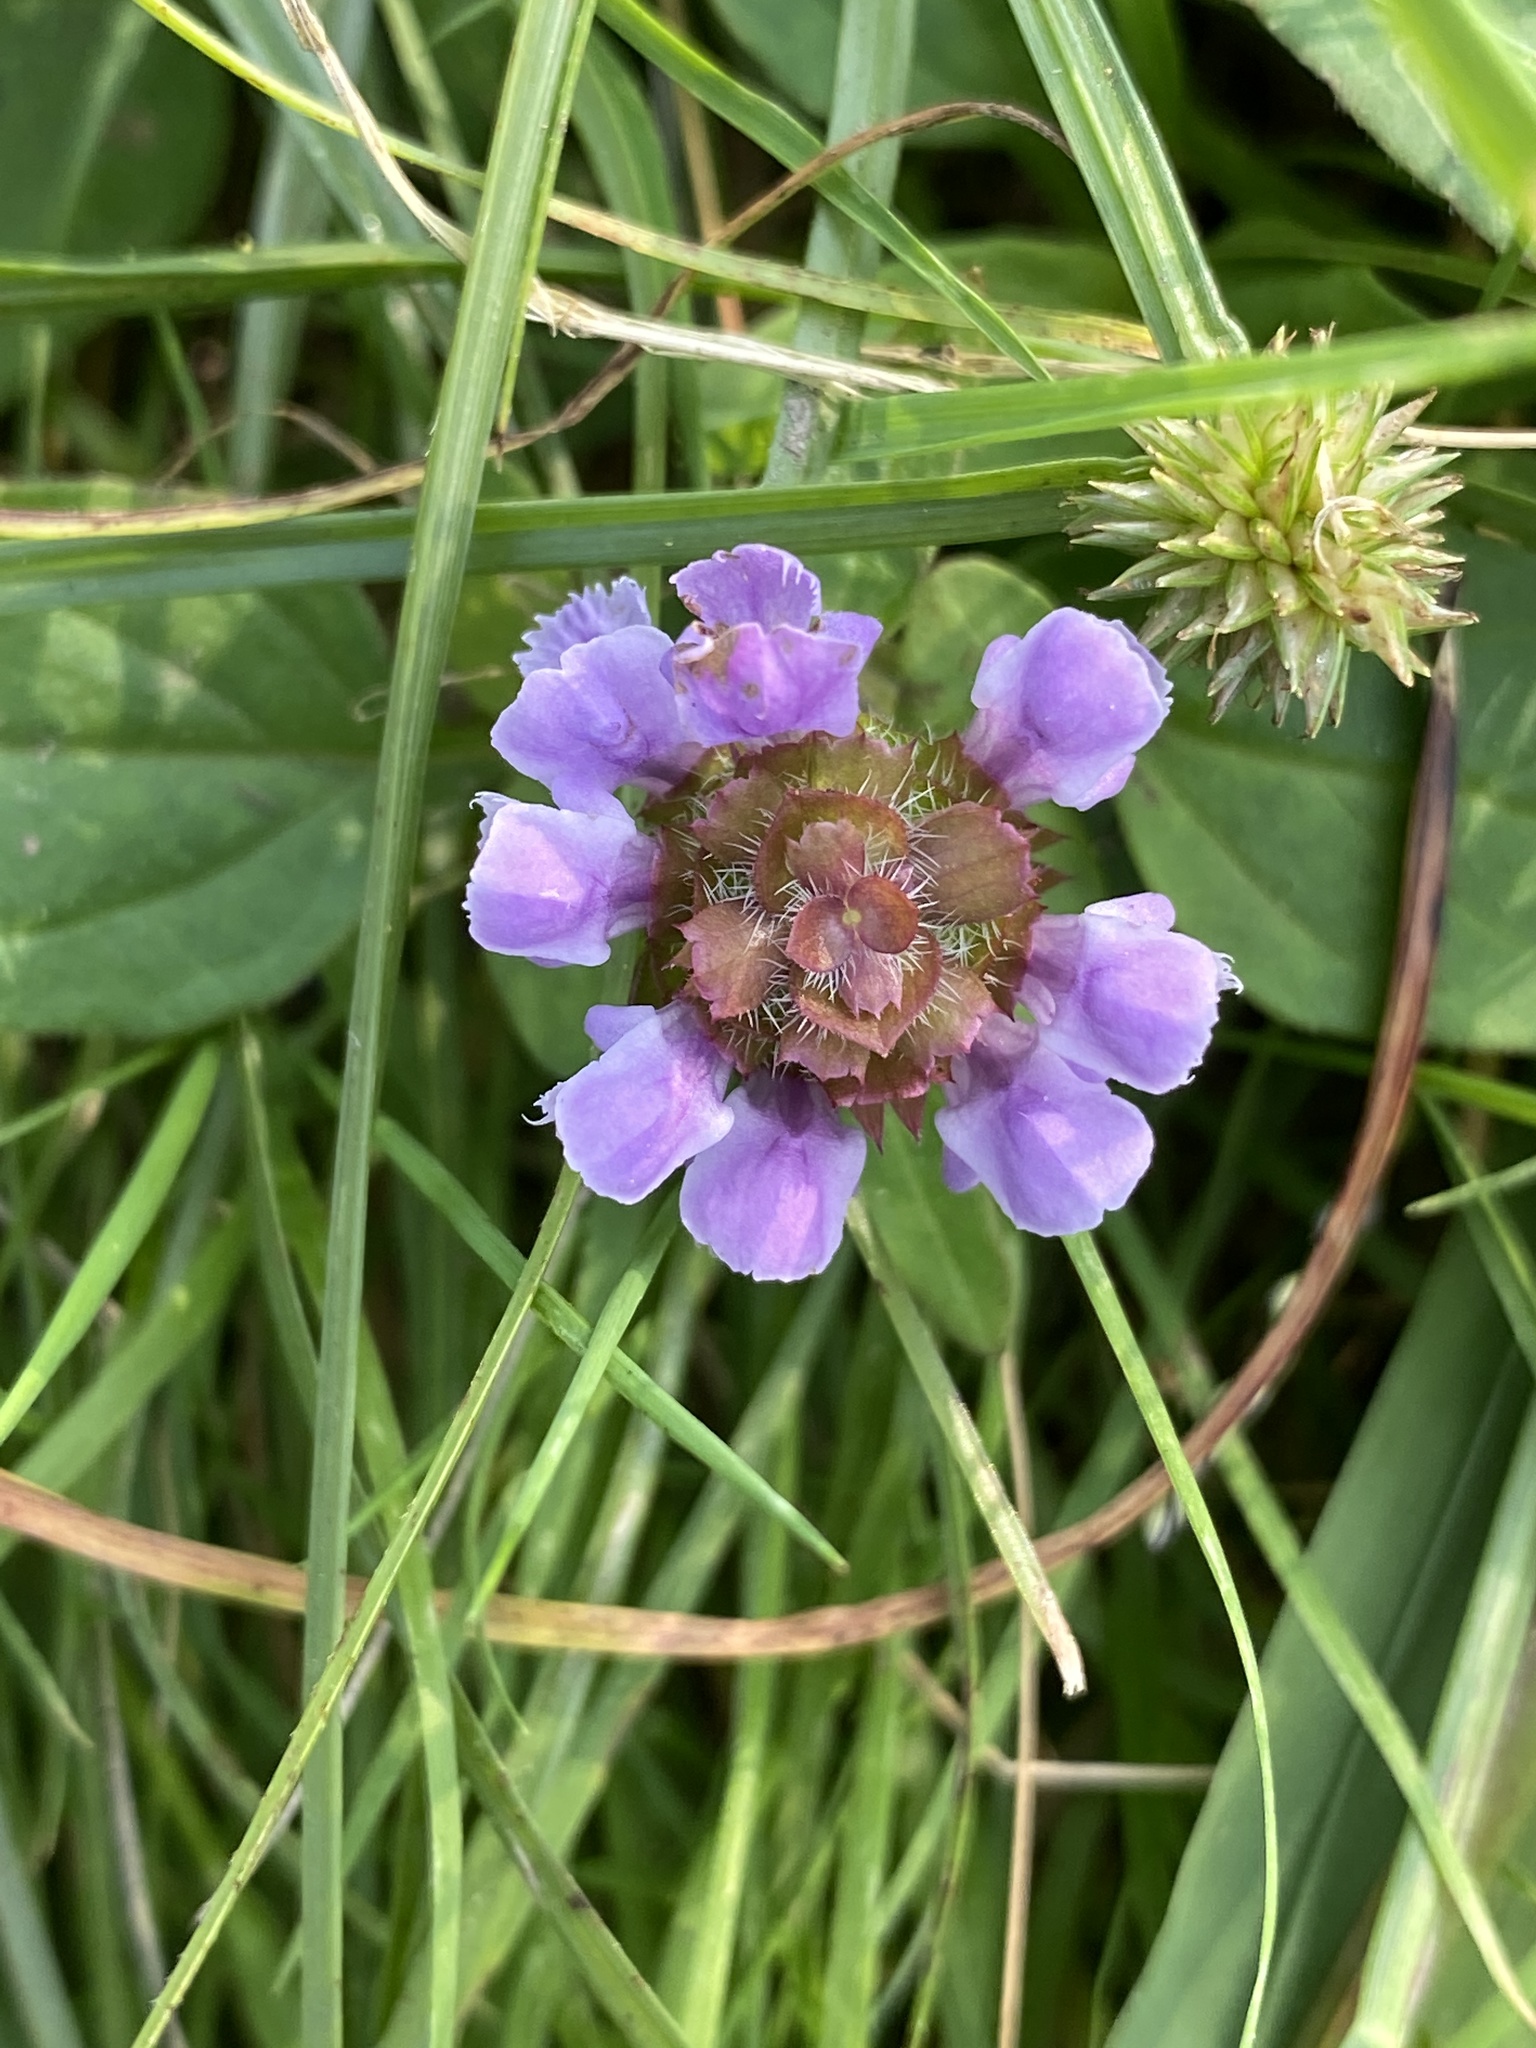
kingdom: Plantae
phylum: Tracheophyta
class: Magnoliopsida
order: Lamiales
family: Lamiaceae
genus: Prunella
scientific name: Prunella vulgaris
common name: Heal-all
